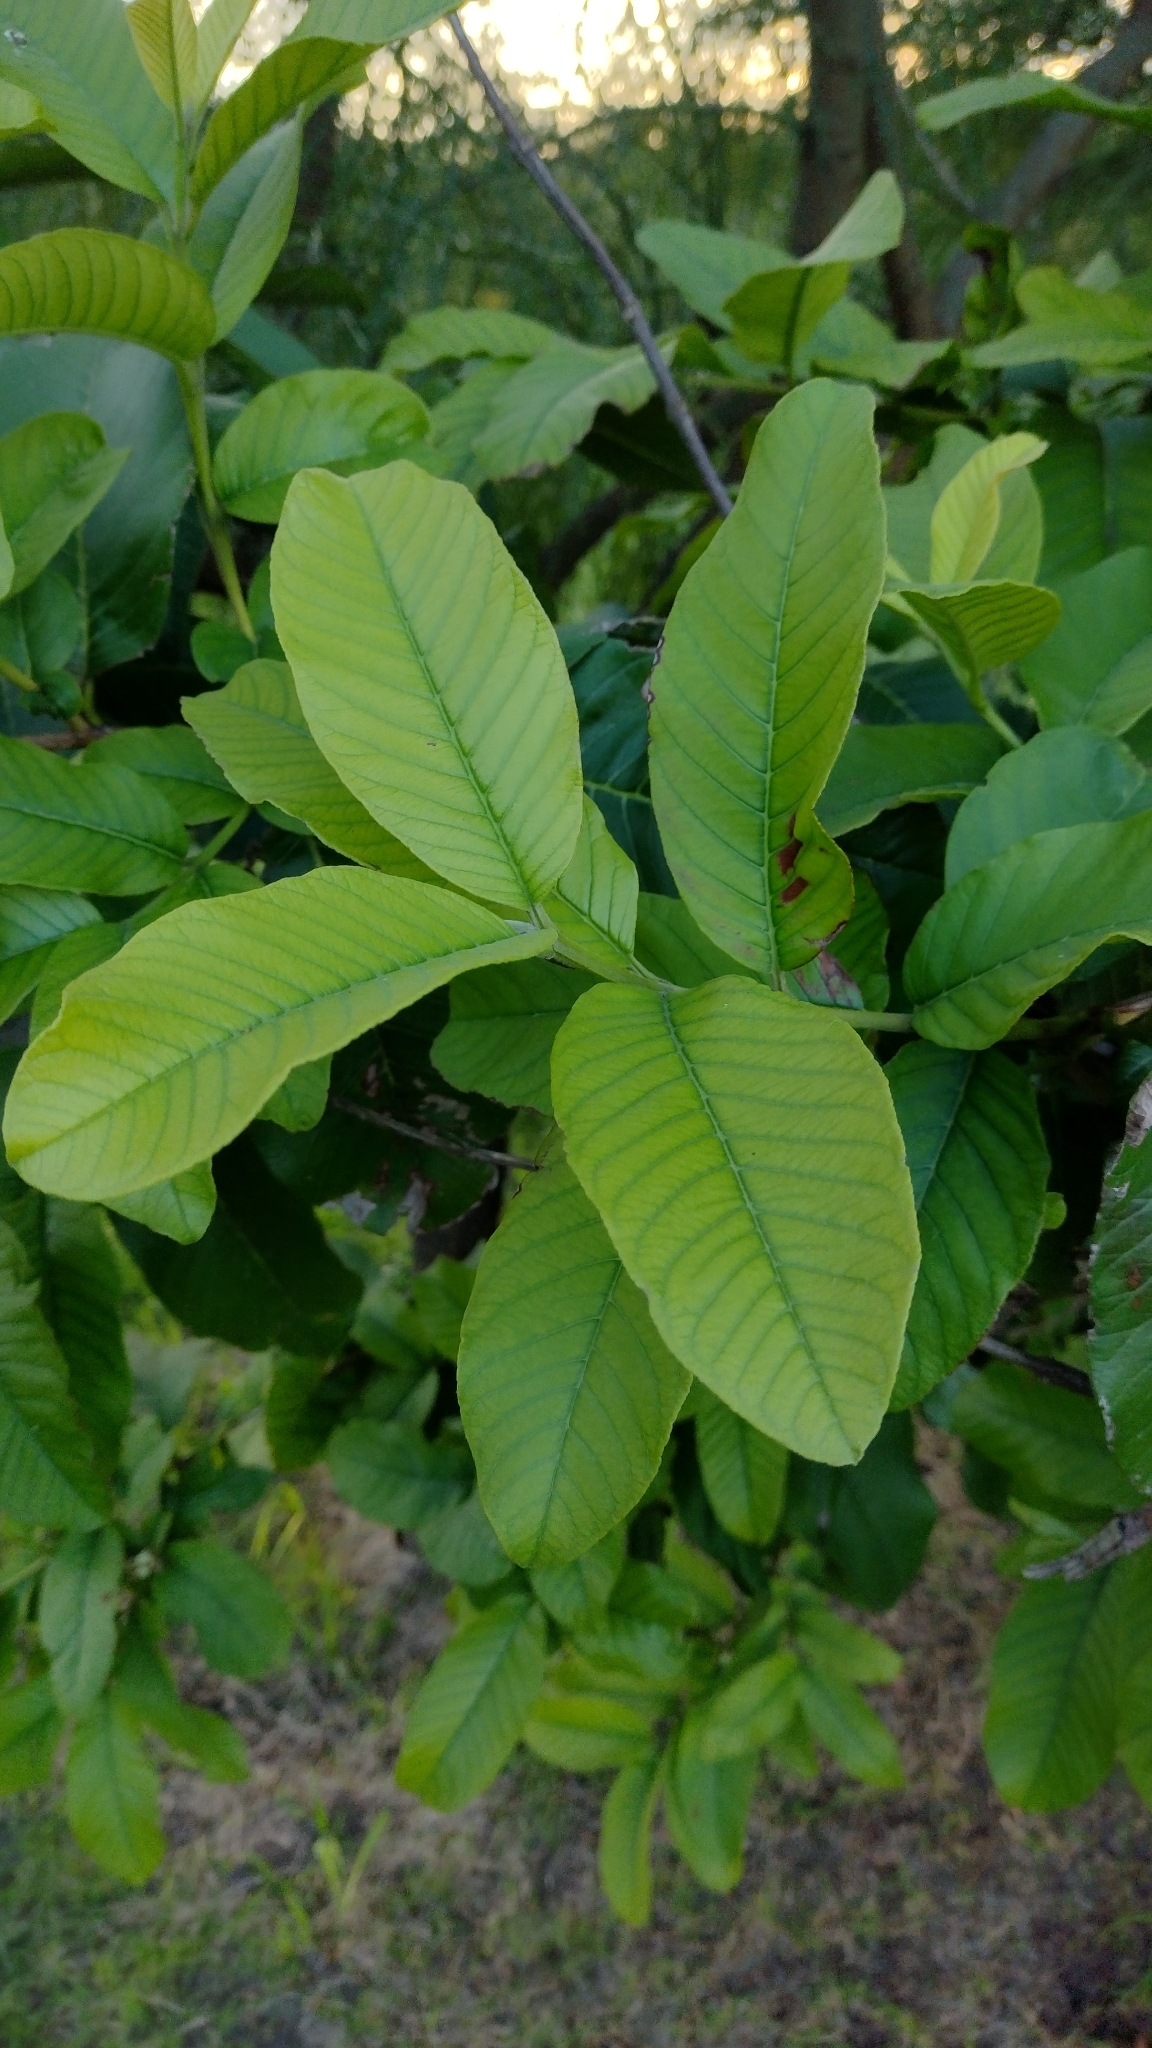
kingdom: Plantae
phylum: Tracheophyta
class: Magnoliopsida
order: Myrtales
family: Myrtaceae
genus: Psidium
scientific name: Psidium guajava
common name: Guava
